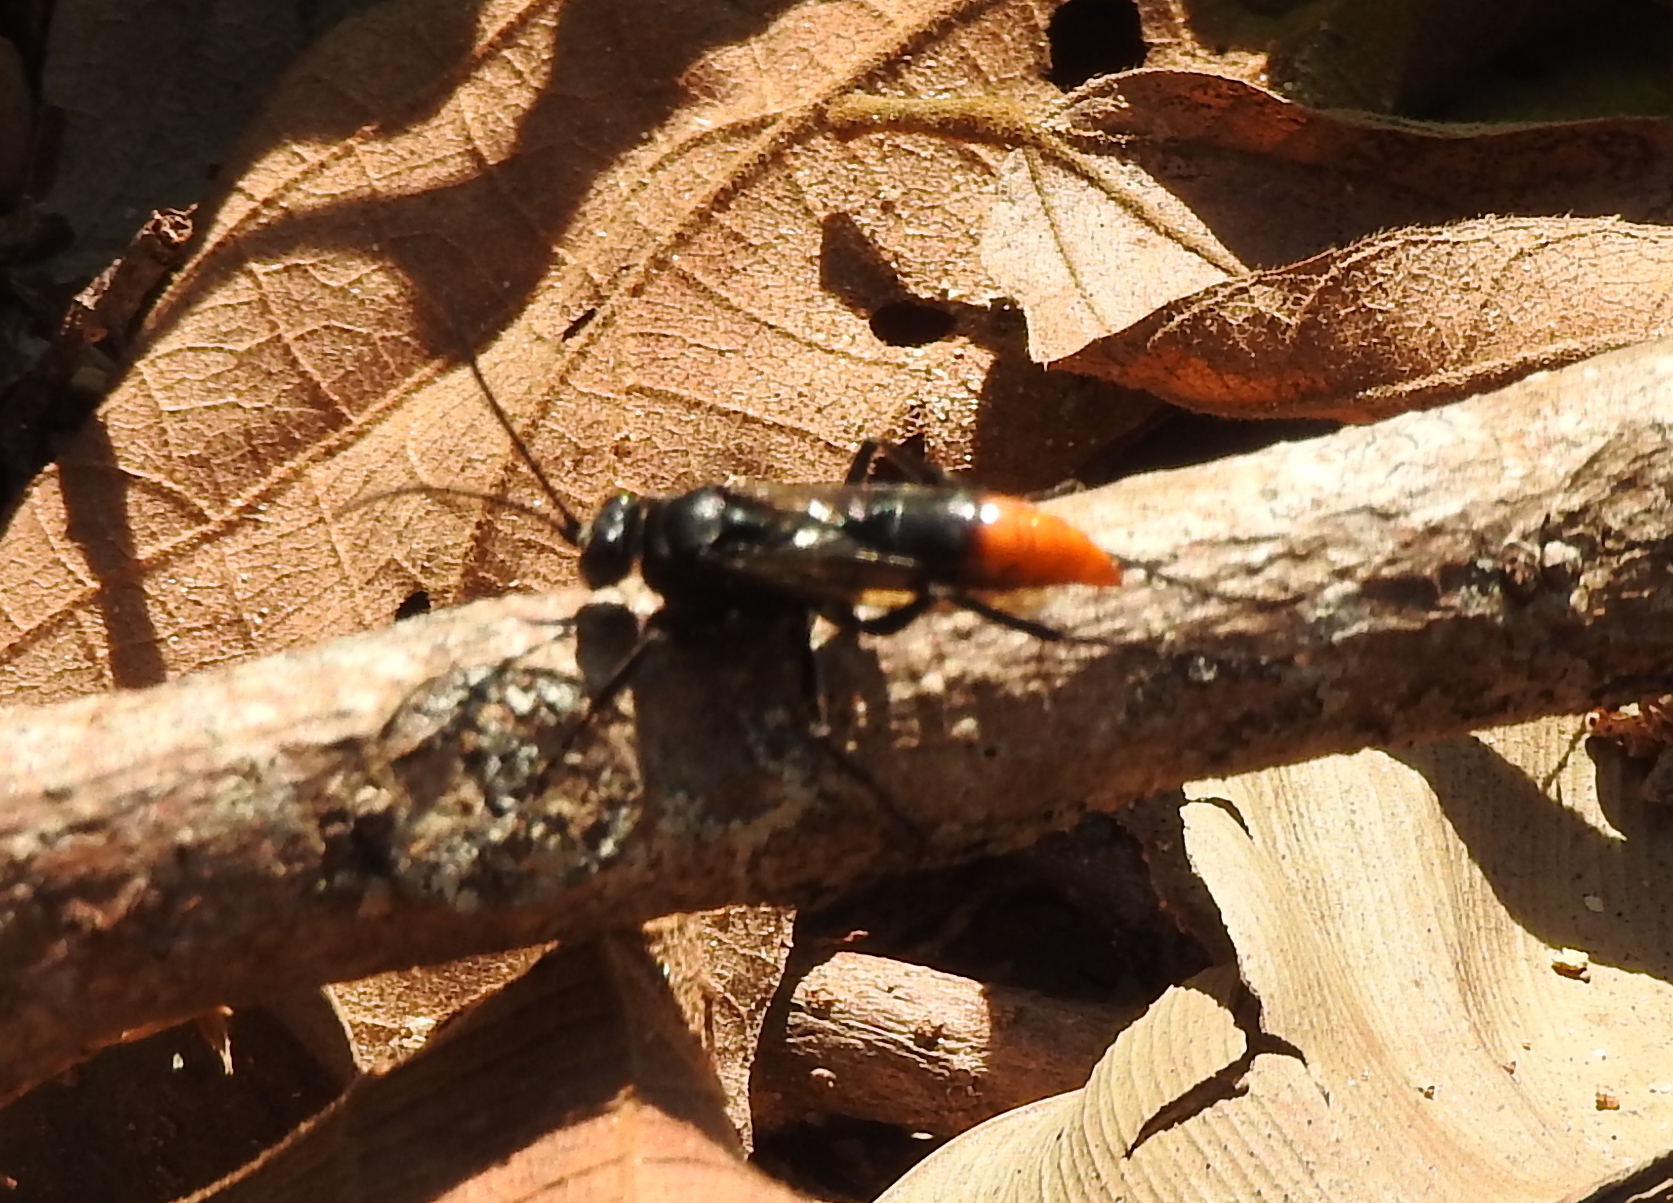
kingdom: Animalia
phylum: Arthropoda
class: Insecta
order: Hymenoptera
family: Pompilidae
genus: Tachypompilus
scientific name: Tachypompilus analis
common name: Spider wasp
